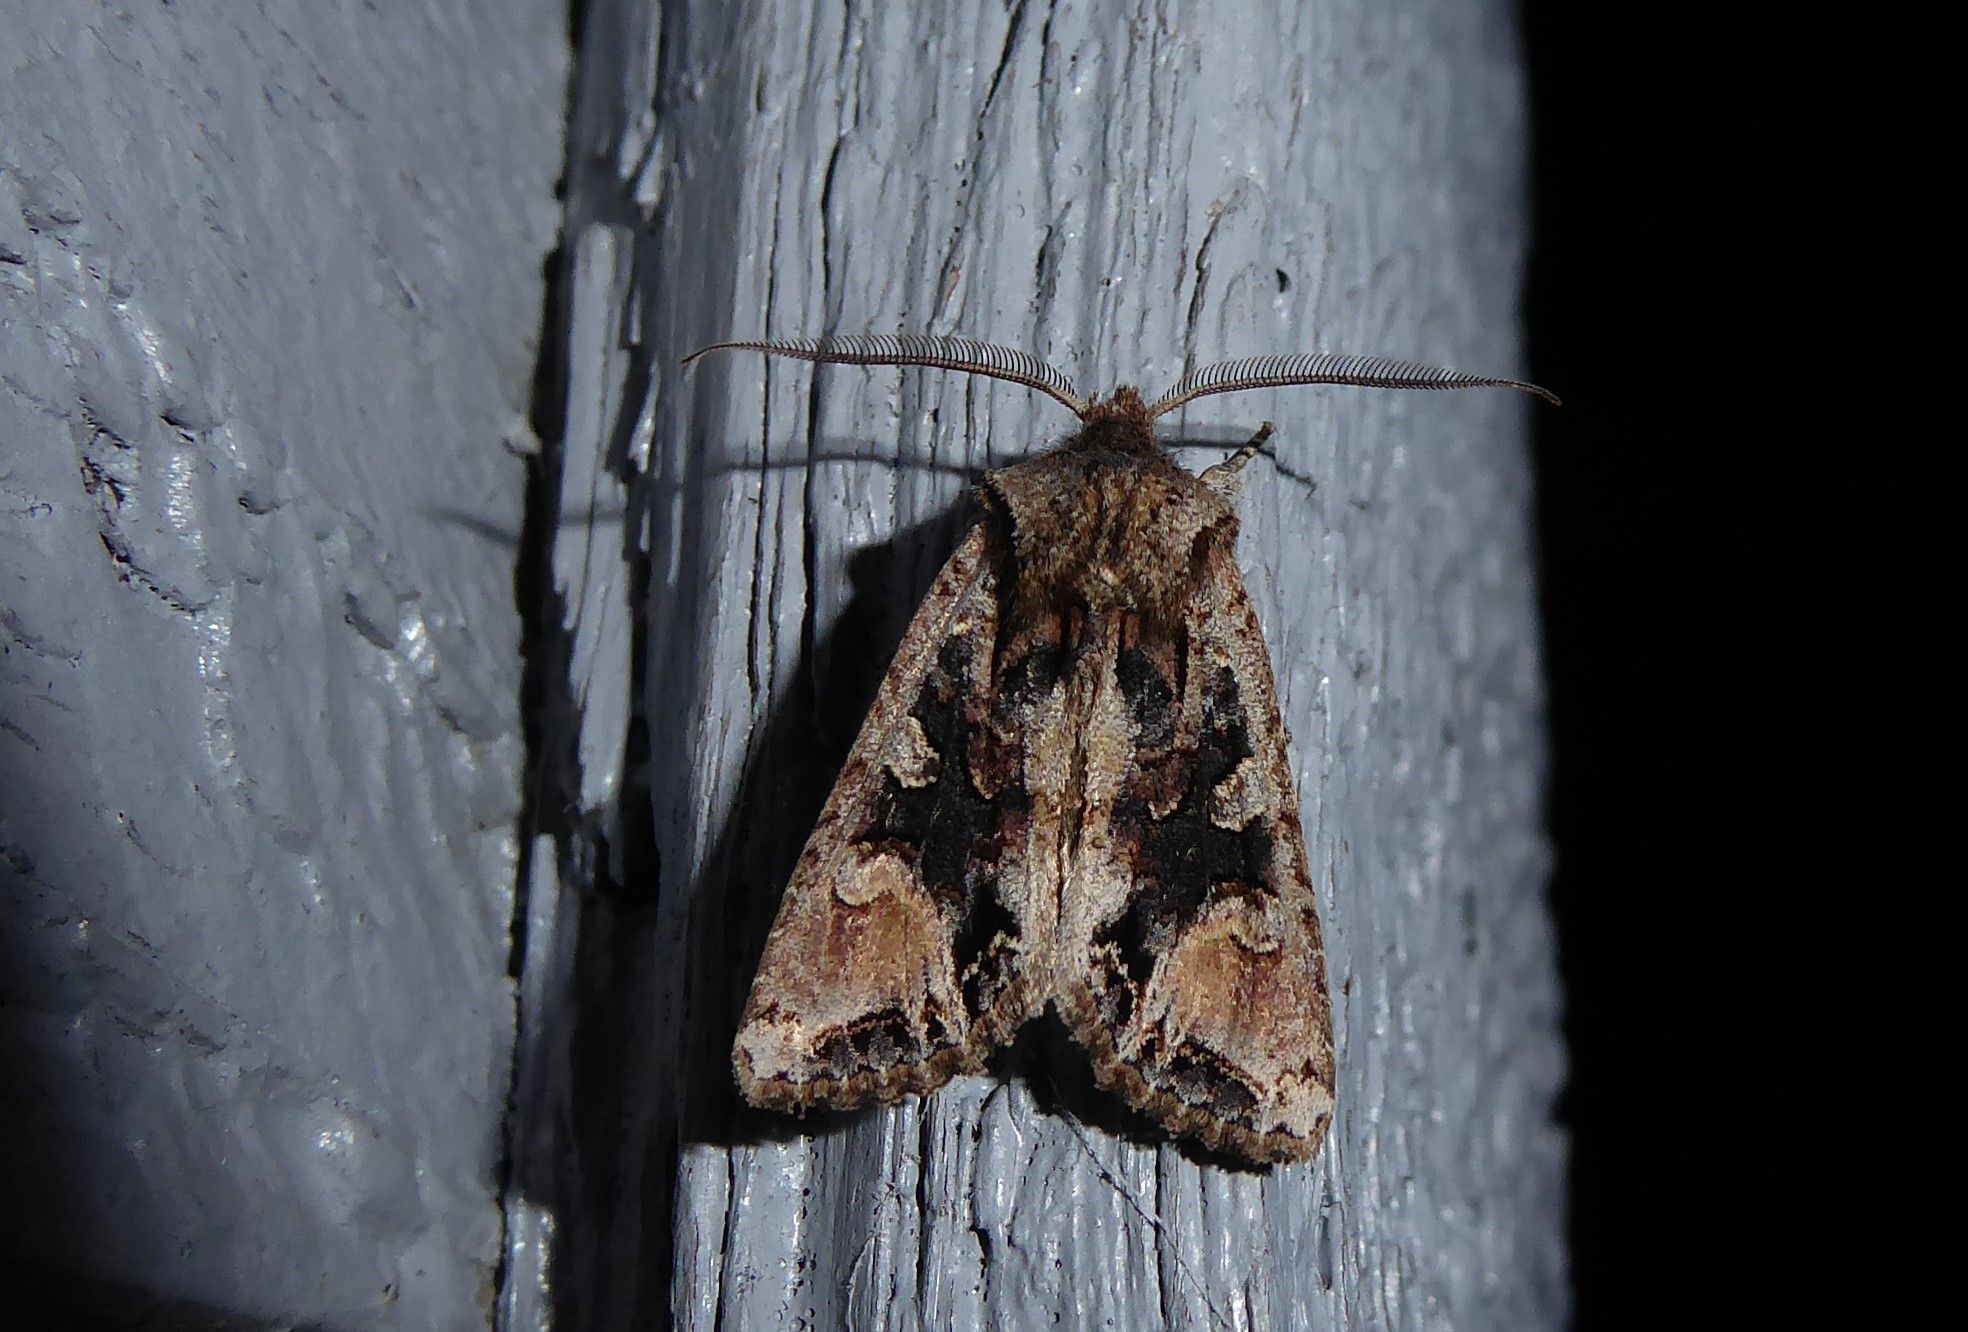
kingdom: Animalia
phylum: Arthropoda
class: Insecta
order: Lepidoptera
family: Noctuidae
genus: Ichneutica
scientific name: Ichneutica
